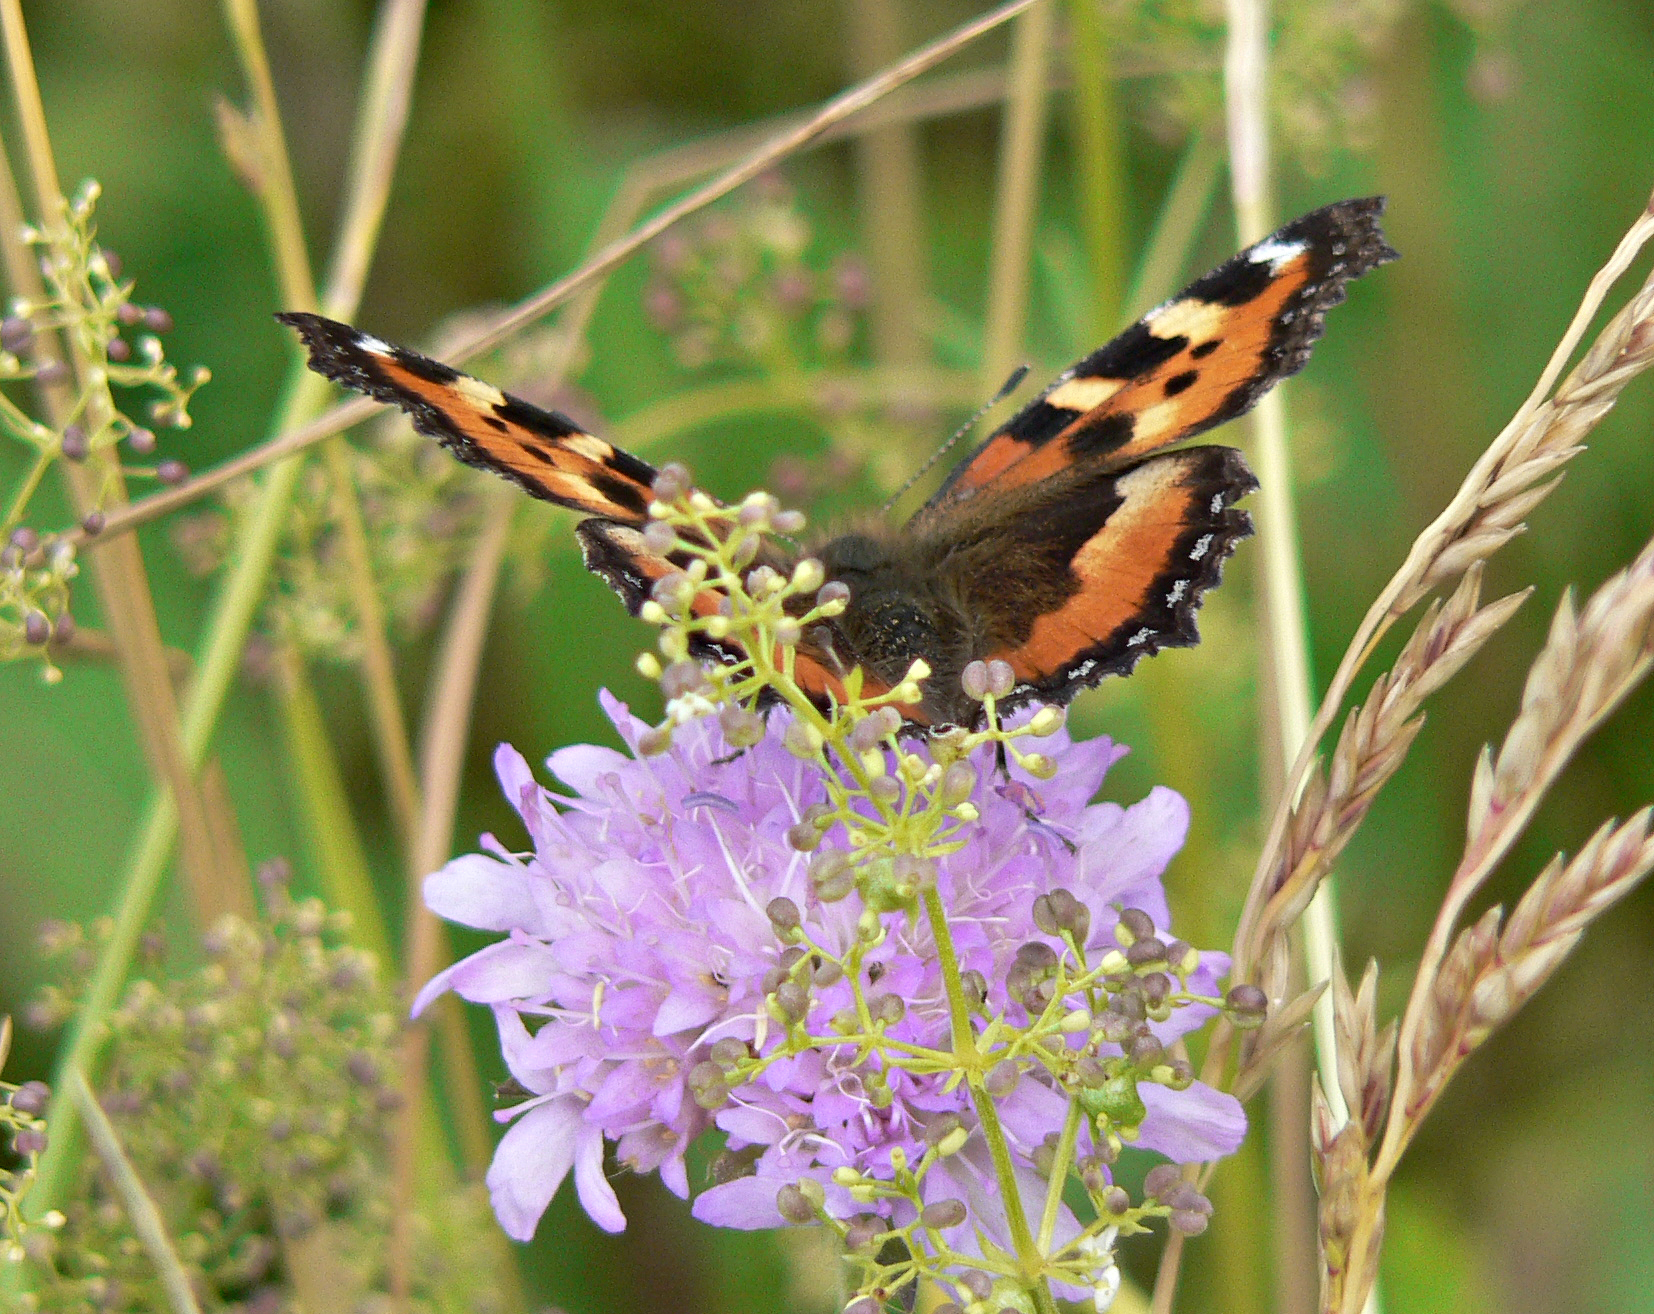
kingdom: Animalia
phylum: Arthropoda
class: Insecta
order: Lepidoptera
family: Nymphalidae
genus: Aglais
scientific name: Aglais urticae
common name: Small tortoiseshell
